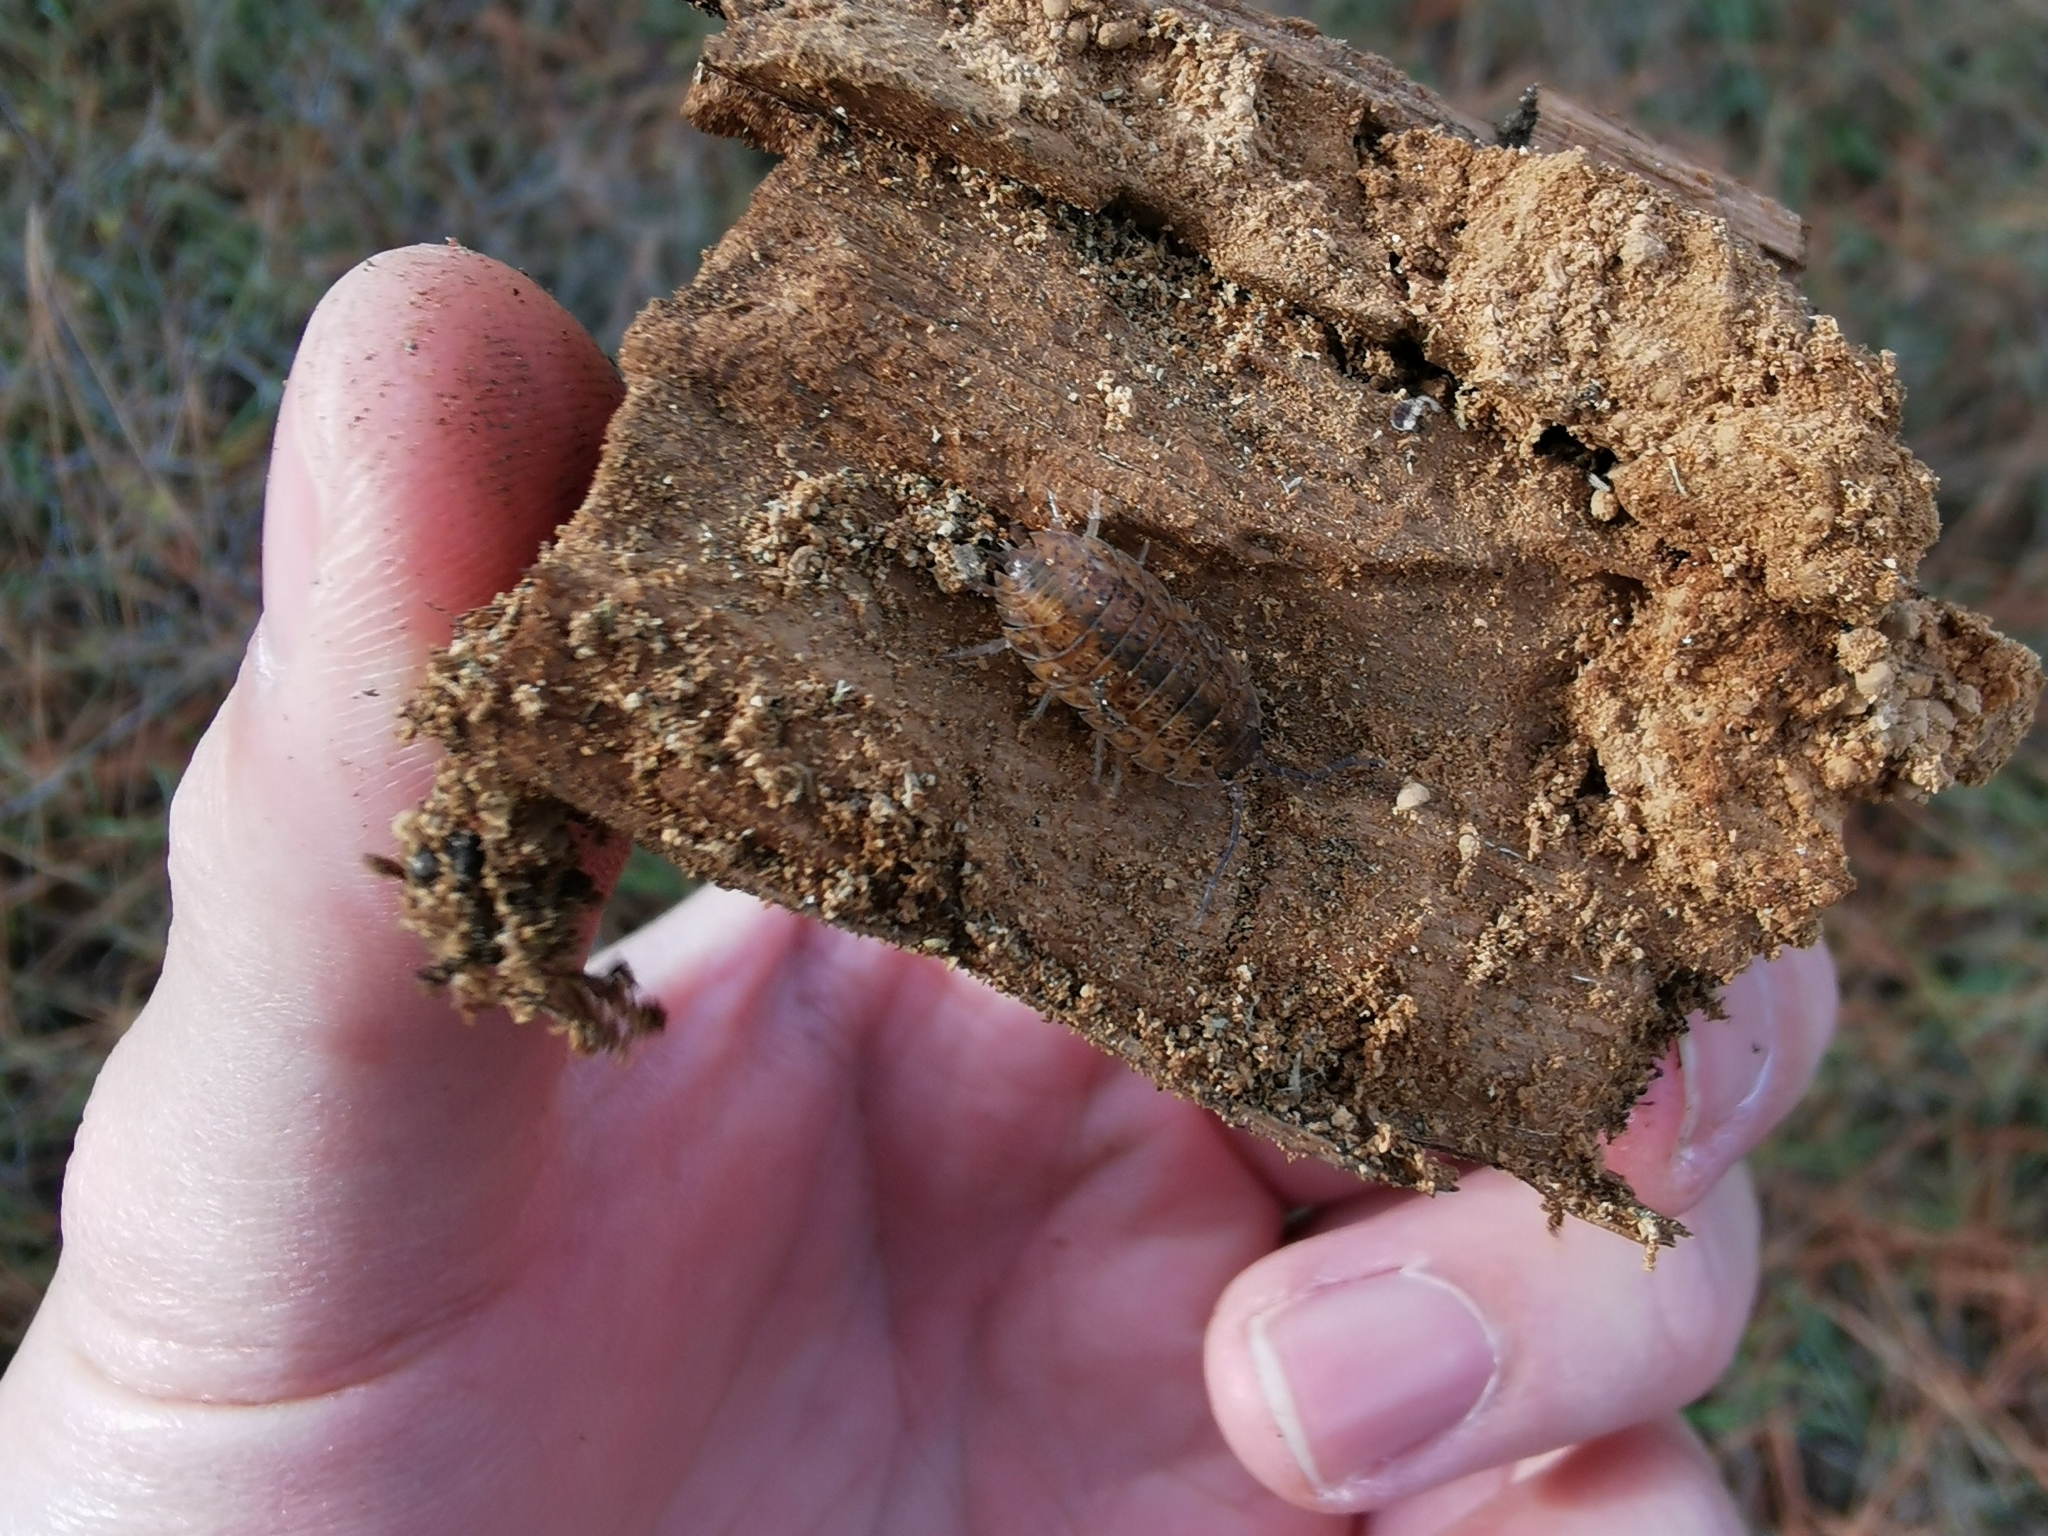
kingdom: Animalia
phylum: Arthropoda
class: Malacostraca
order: Isopoda
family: Trachelipodidae
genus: Trachelipus
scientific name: Trachelipus rathkii
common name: Isopod
